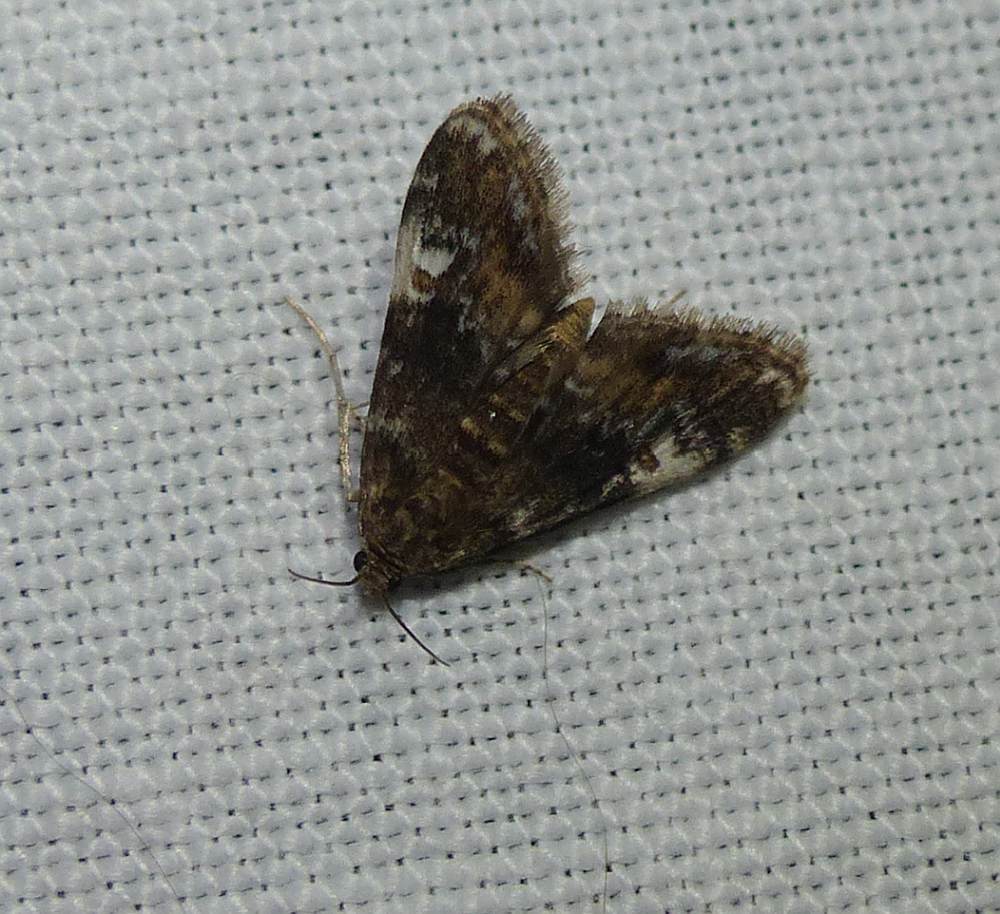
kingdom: Animalia
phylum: Arthropoda
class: Insecta
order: Lepidoptera
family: Crambidae
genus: Elophila
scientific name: Elophila obliteralis
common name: Waterlily leafcutter moth
